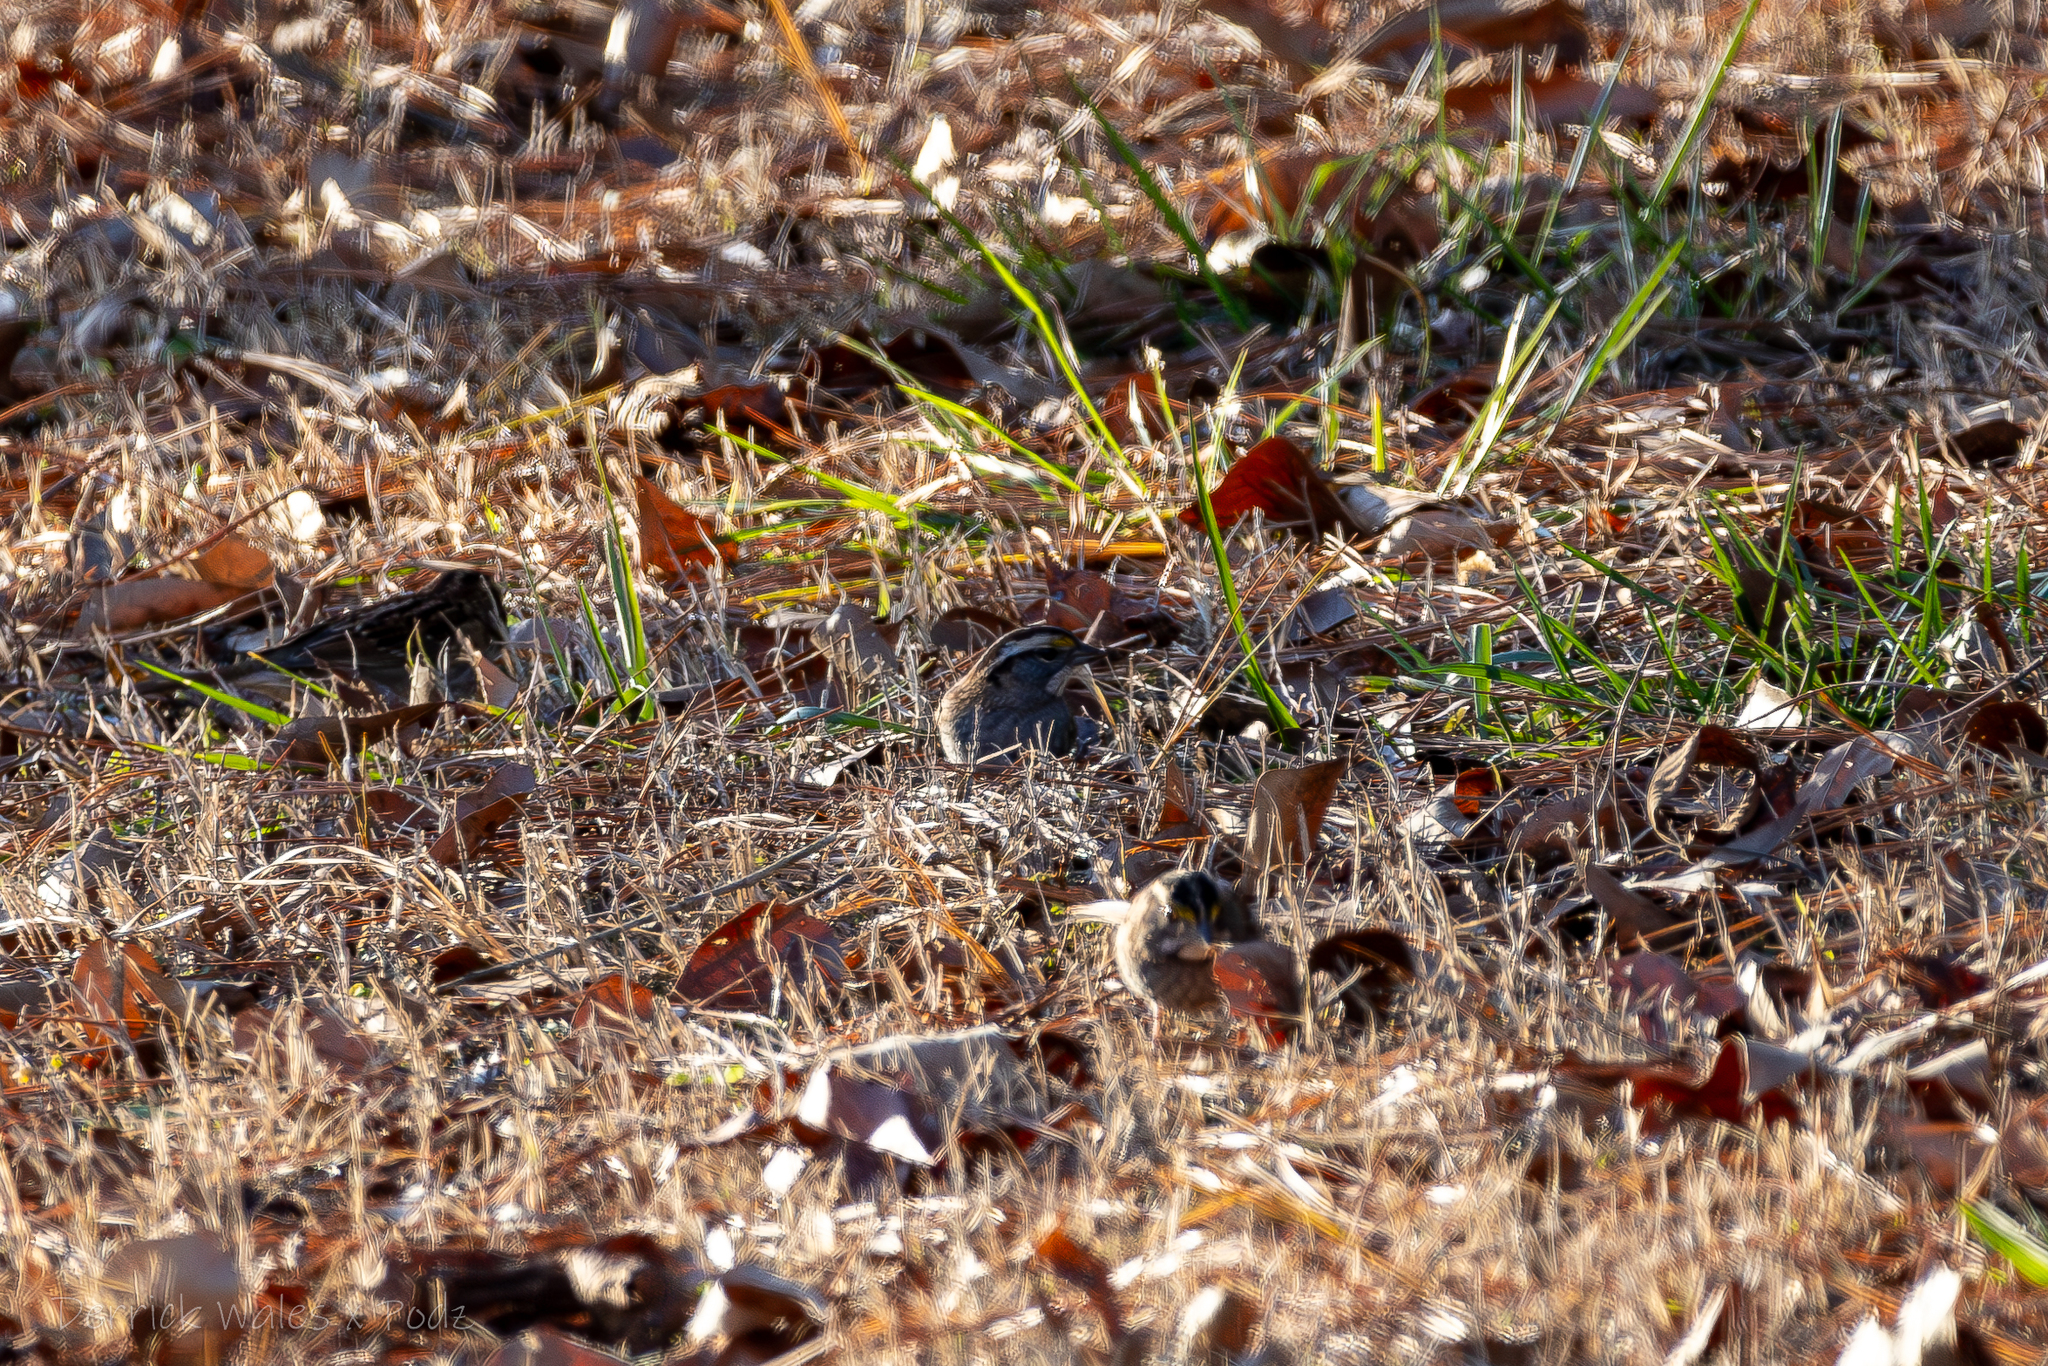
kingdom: Animalia
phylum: Chordata
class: Aves
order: Passeriformes
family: Passerellidae
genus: Zonotrichia
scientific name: Zonotrichia albicollis
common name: White-throated sparrow
